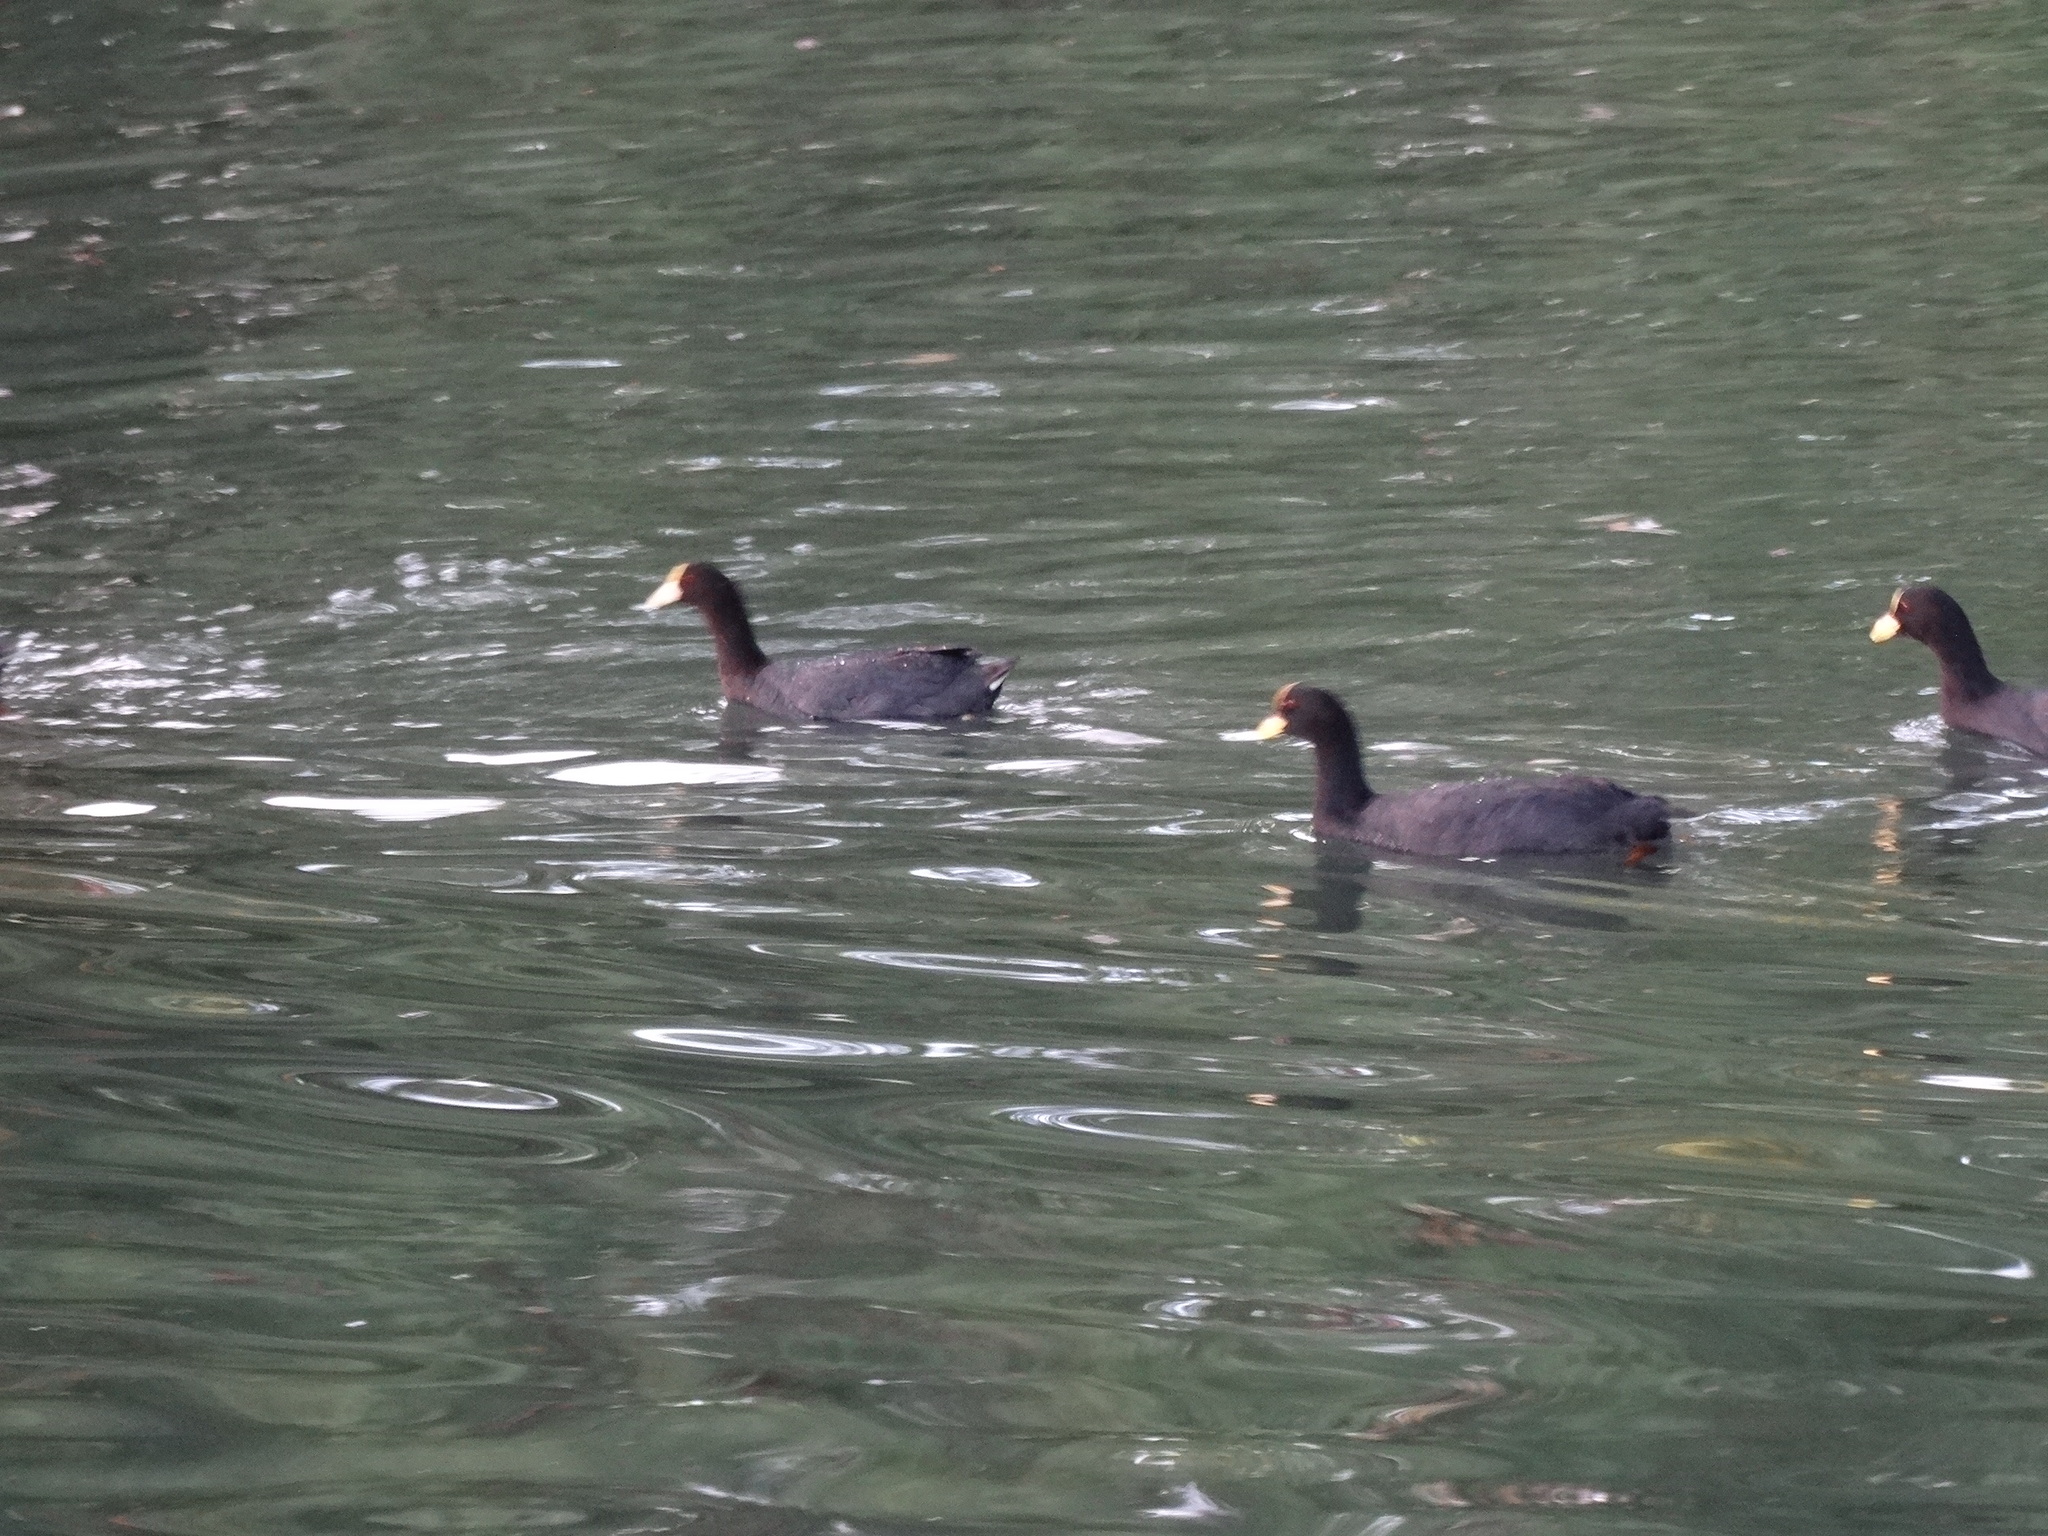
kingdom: Animalia
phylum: Chordata
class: Aves
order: Gruiformes
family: Rallidae
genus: Fulica
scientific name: Fulica armillata
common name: Red-gartered coot
